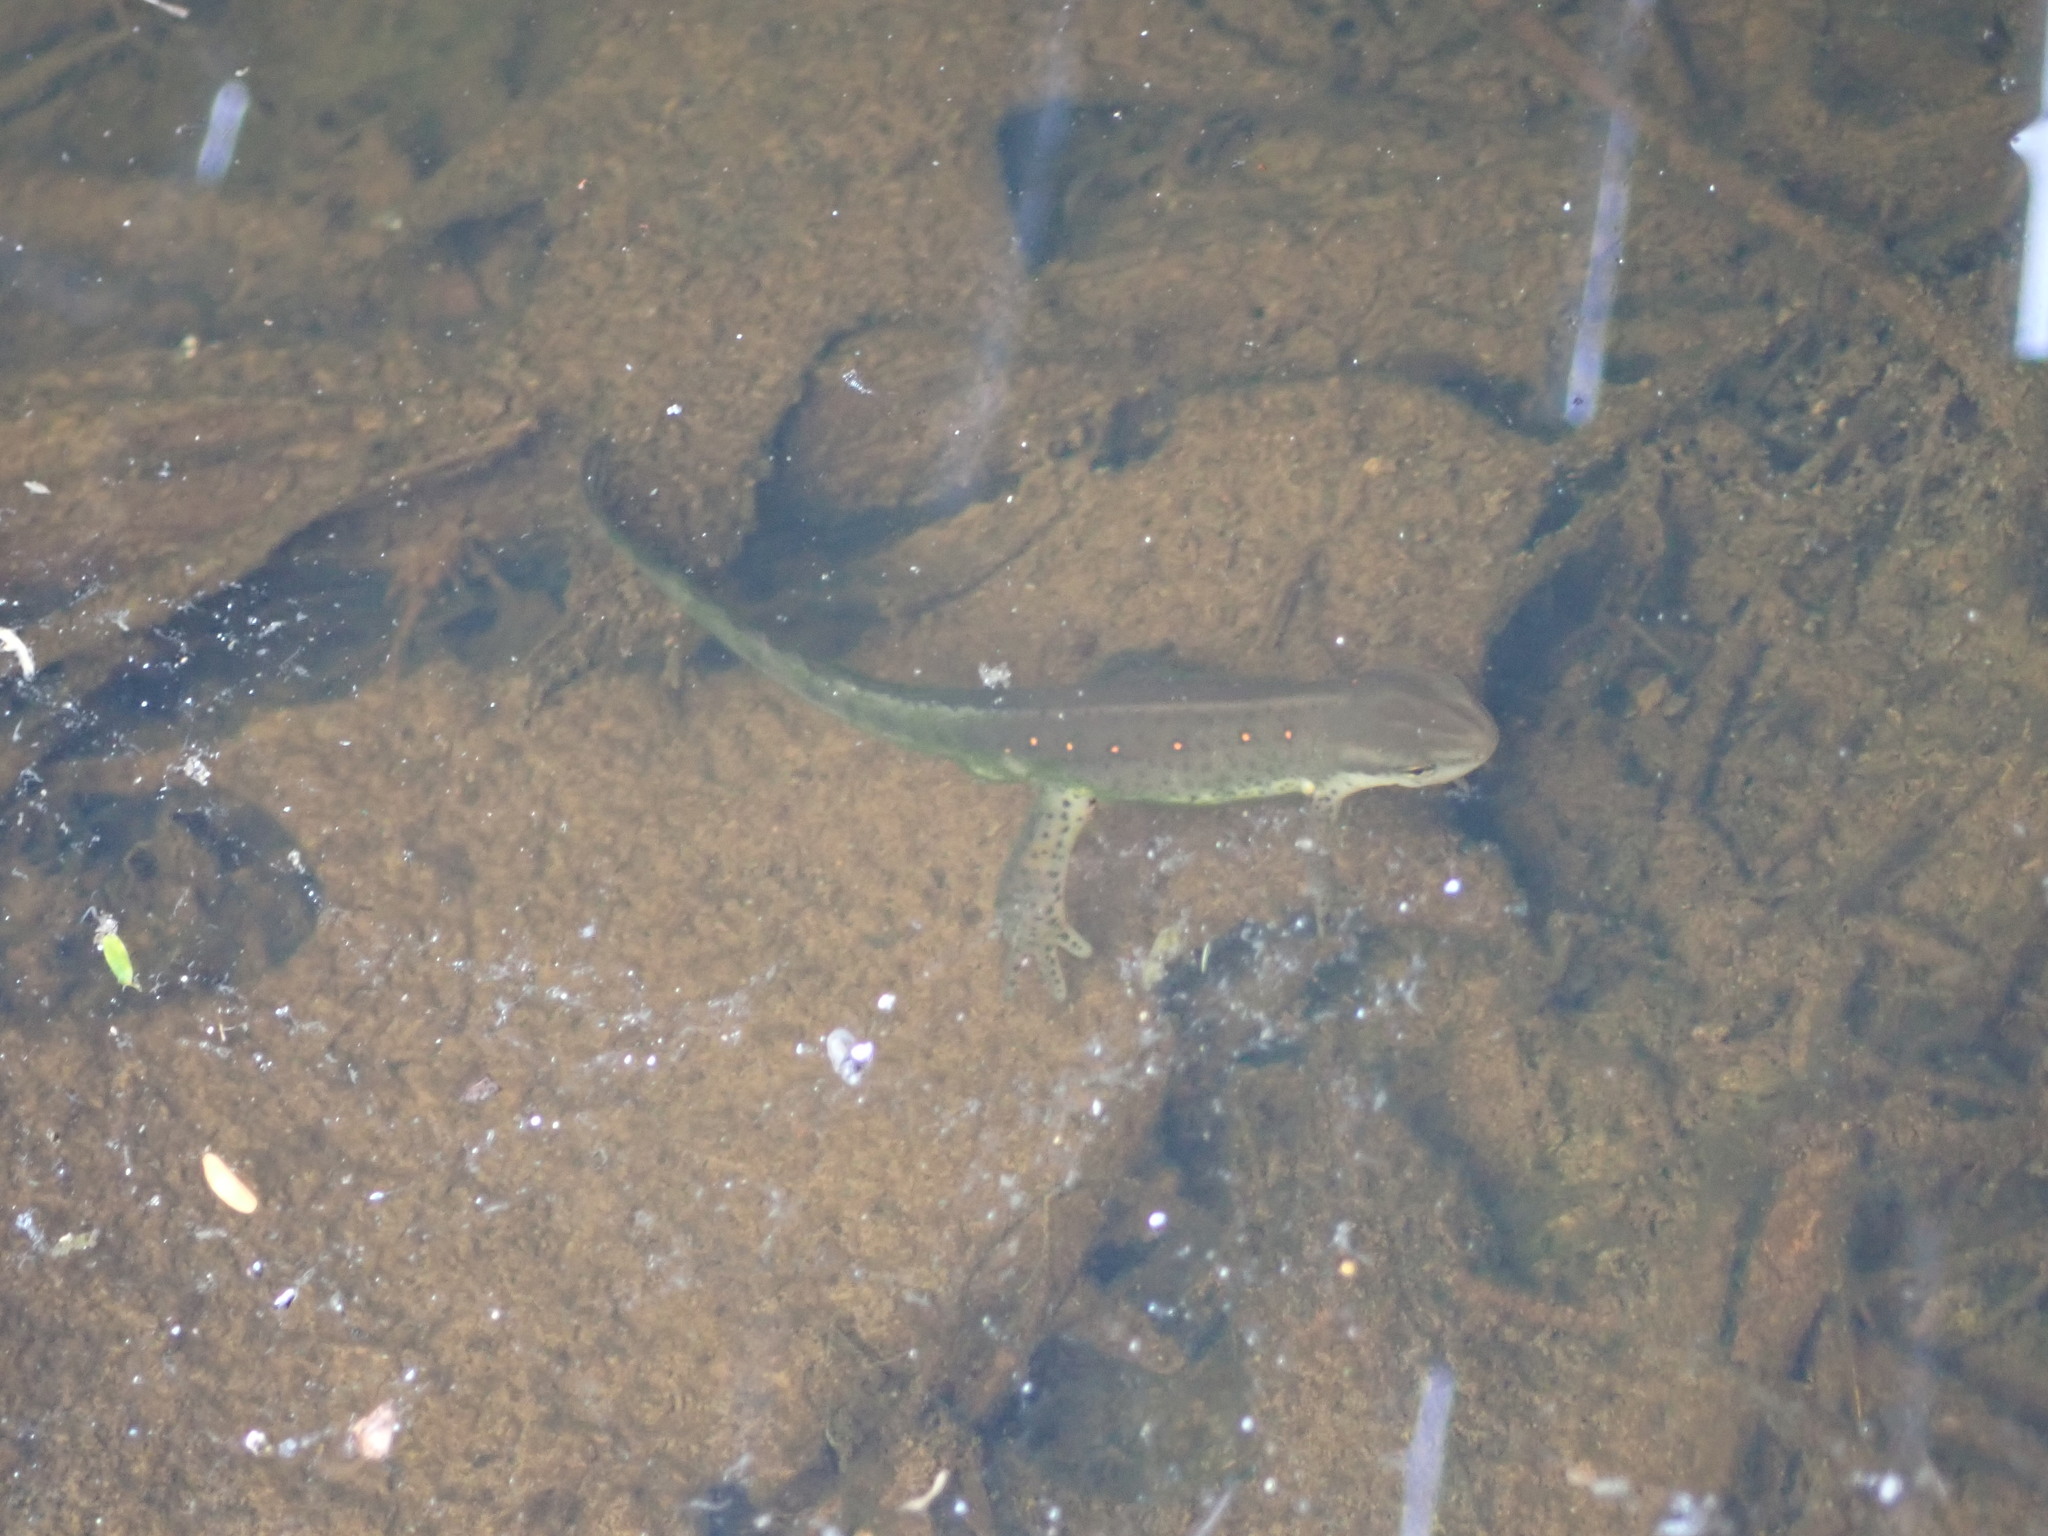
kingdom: Animalia
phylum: Chordata
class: Amphibia
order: Caudata
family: Salamandridae
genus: Notophthalmus
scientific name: Notophthalmus viridescens
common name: Eastern newt
